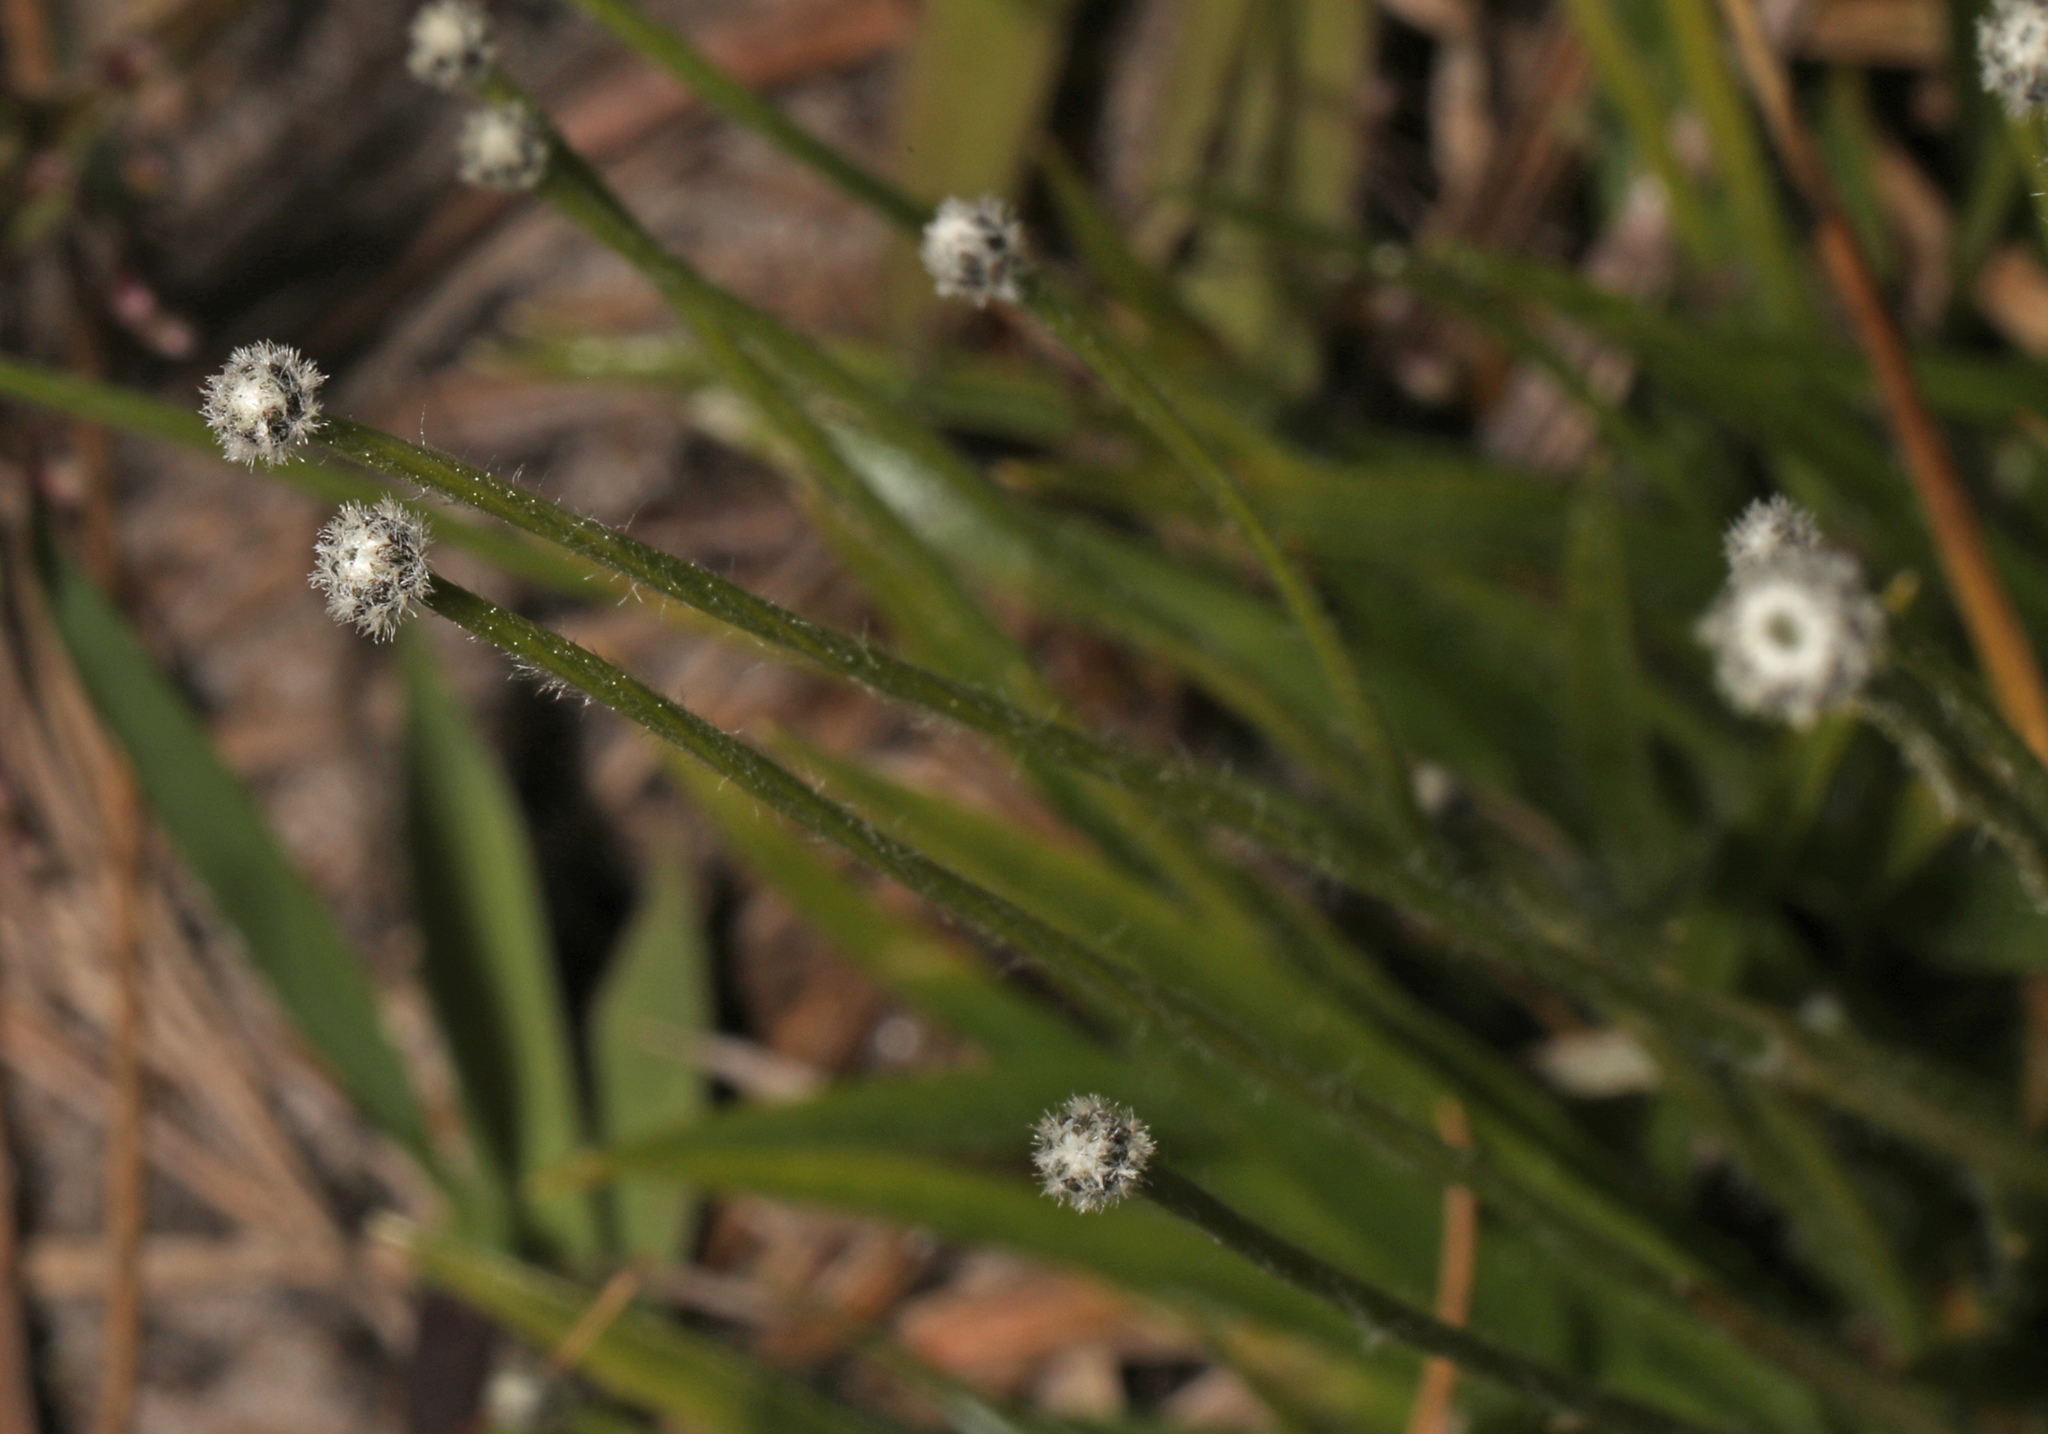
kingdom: Plantae
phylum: Tracheophyta
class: Liliopsida
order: Poales
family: Eriocaulaceae
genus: Paepalanthus
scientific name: Paepalanthus anceps
